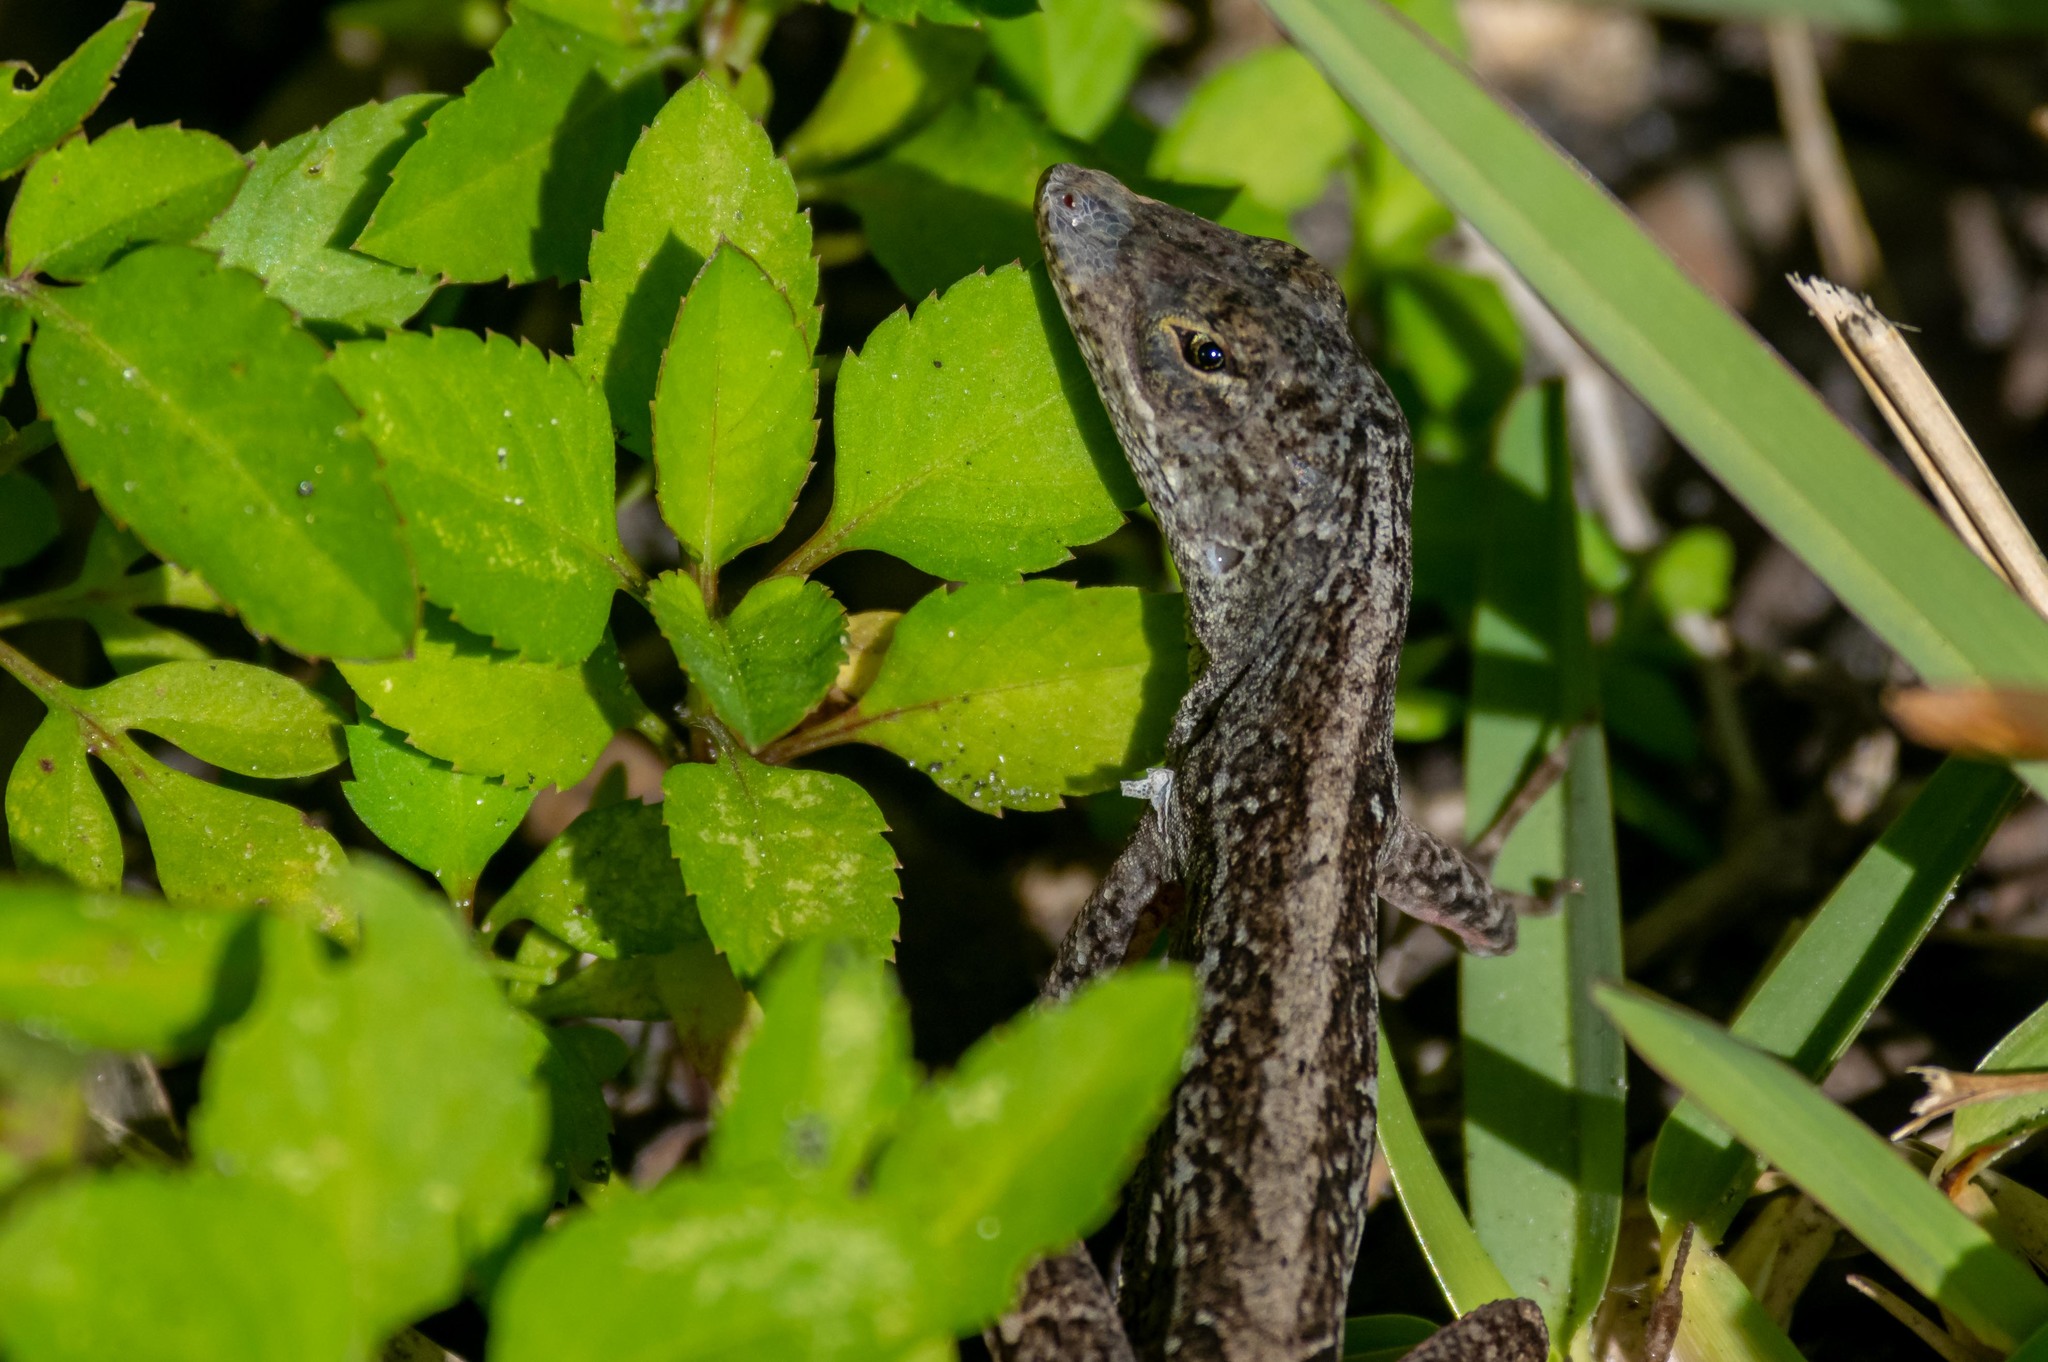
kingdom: Animalia
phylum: Chordata
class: Squamata
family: Dactyloidae
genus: Anolis
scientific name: Anolis sagrei
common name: Brown anole
